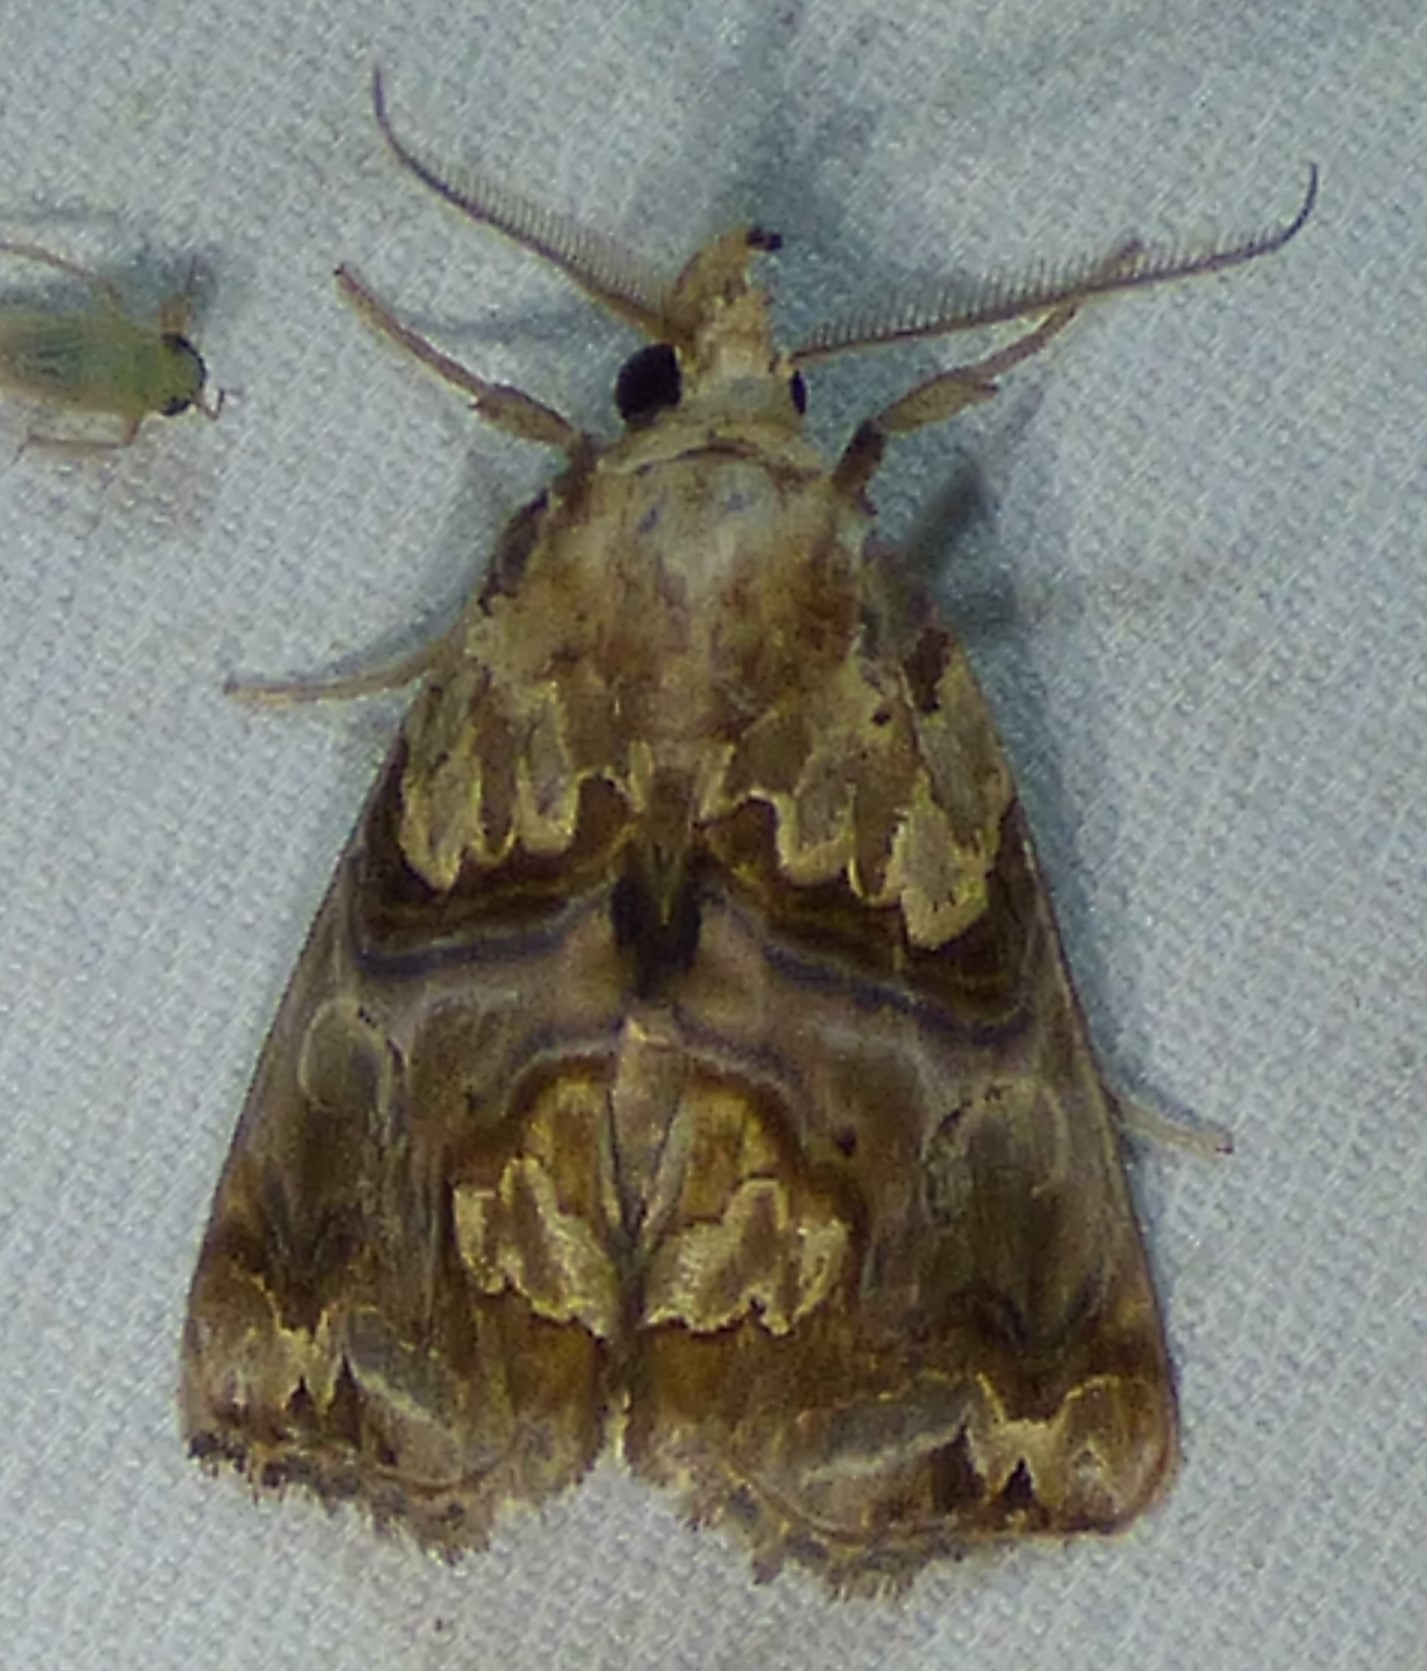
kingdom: Animalia
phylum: Arthropoda
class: Insecta
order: Lepidoptera
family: Erebidae
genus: Plusiodonta
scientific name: Plusiodonta compressipalpis
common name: Moonseed moth
